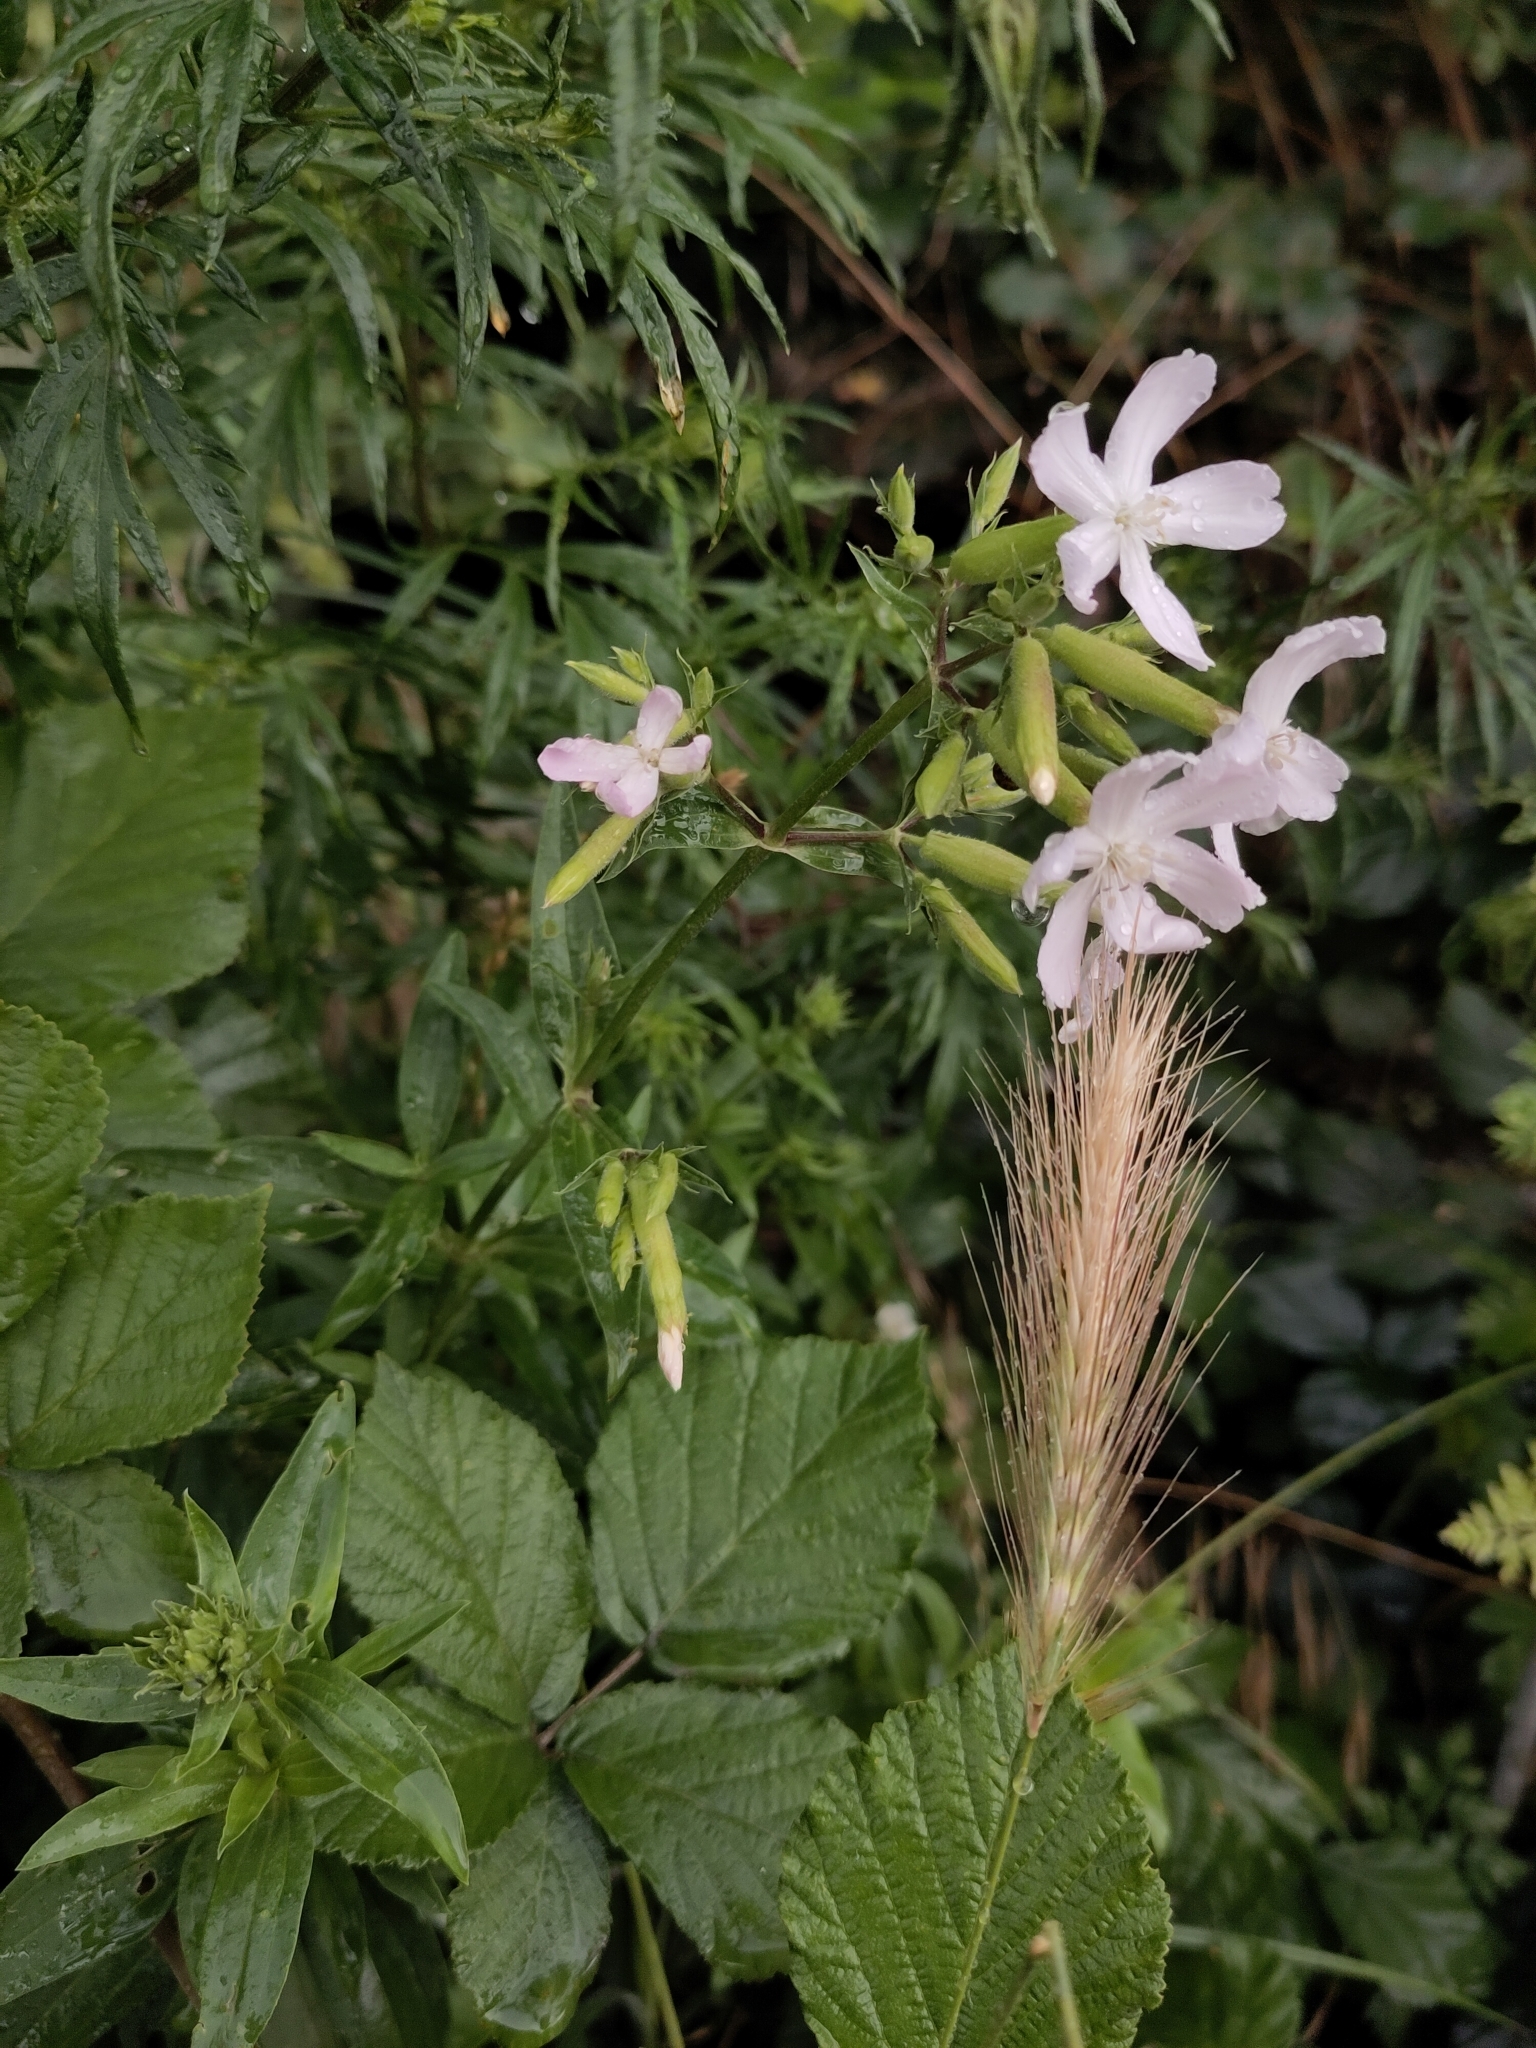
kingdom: Plantae
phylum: Tracheophyta
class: Magnoliopsida
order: Caryophyllales
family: Caryophyllaceae
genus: Saponaria
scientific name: Saponaria officinalis
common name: Soapwort
